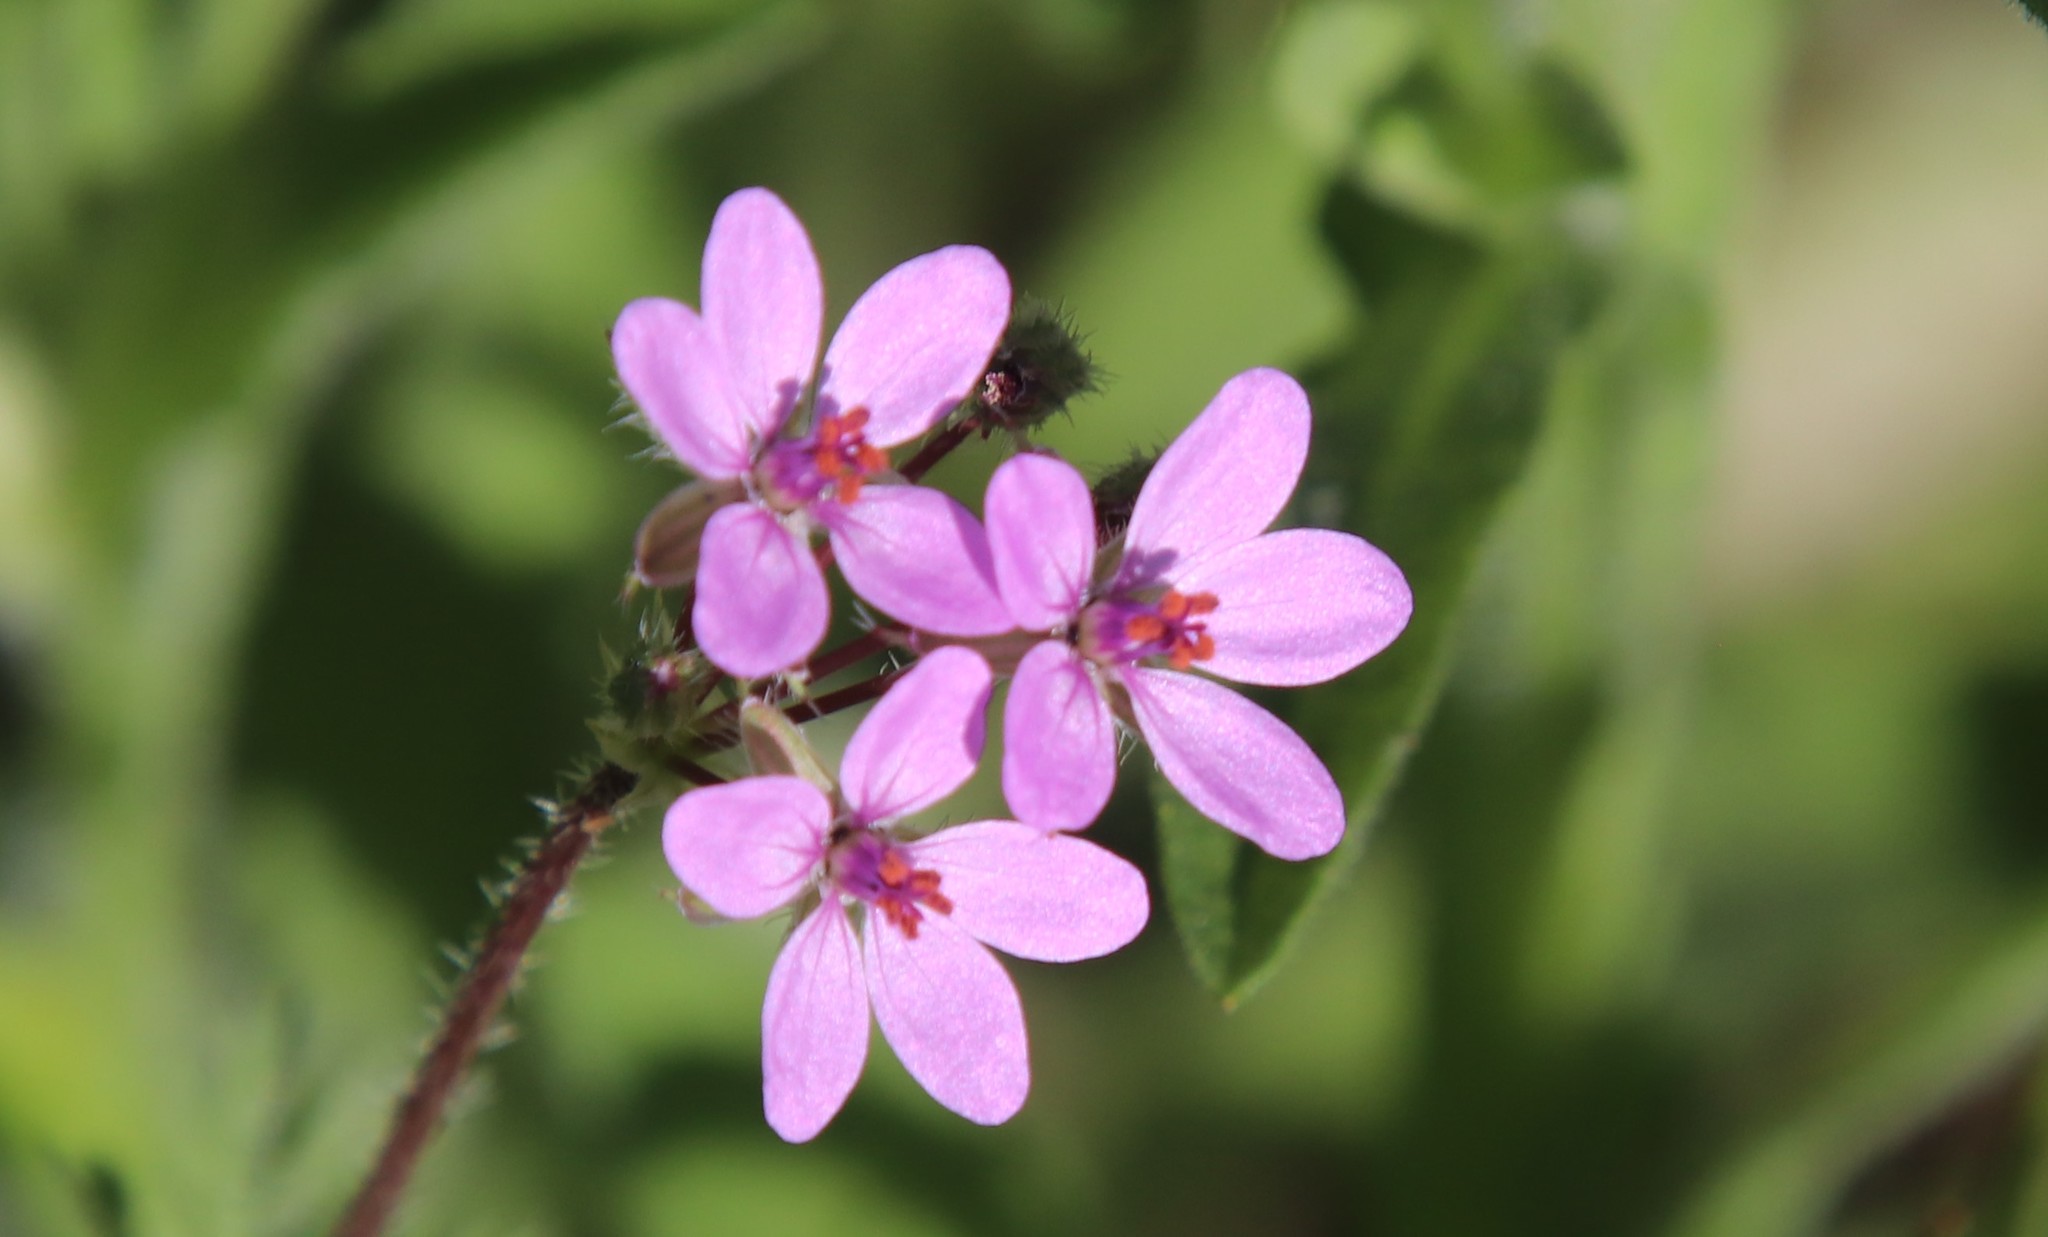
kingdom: Plantae
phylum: Tracheophyta
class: Magnoliopsida
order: Geraniales
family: Geraniaceae
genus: Erodium
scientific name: Erodium cicutarium
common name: Common stork's-bill
